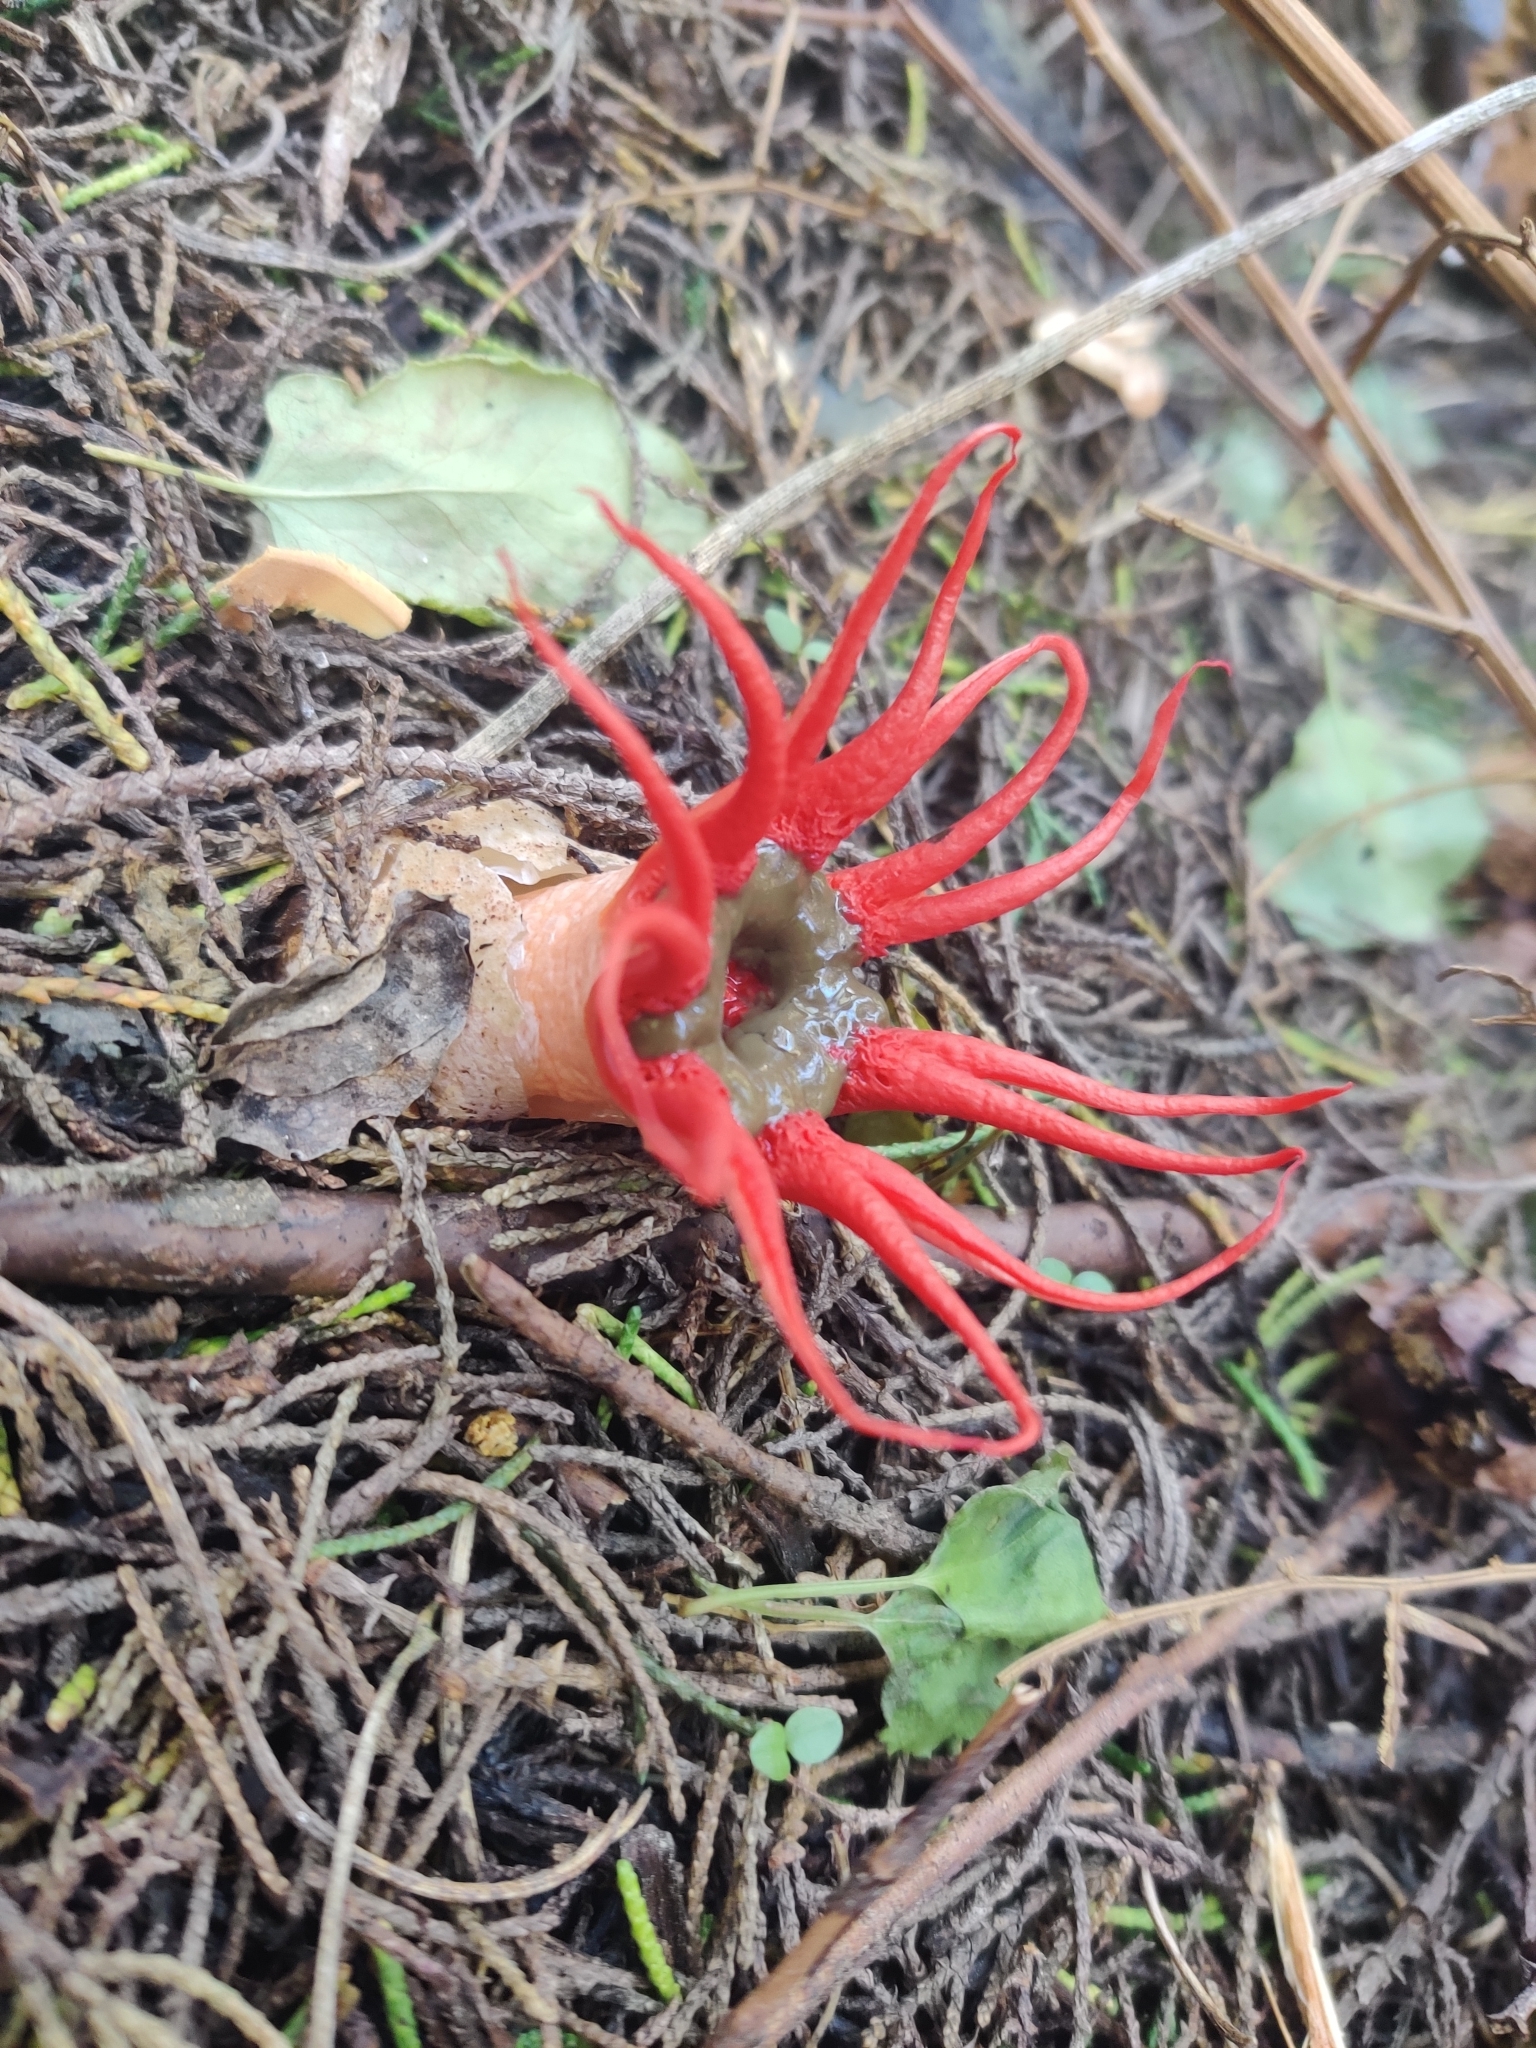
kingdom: Fungi
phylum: Basidiomycota
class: Agaricomycetes
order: Phallales
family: Phallaceae
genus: Aseroe
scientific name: Aseroe rubra
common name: Starfish fungus
